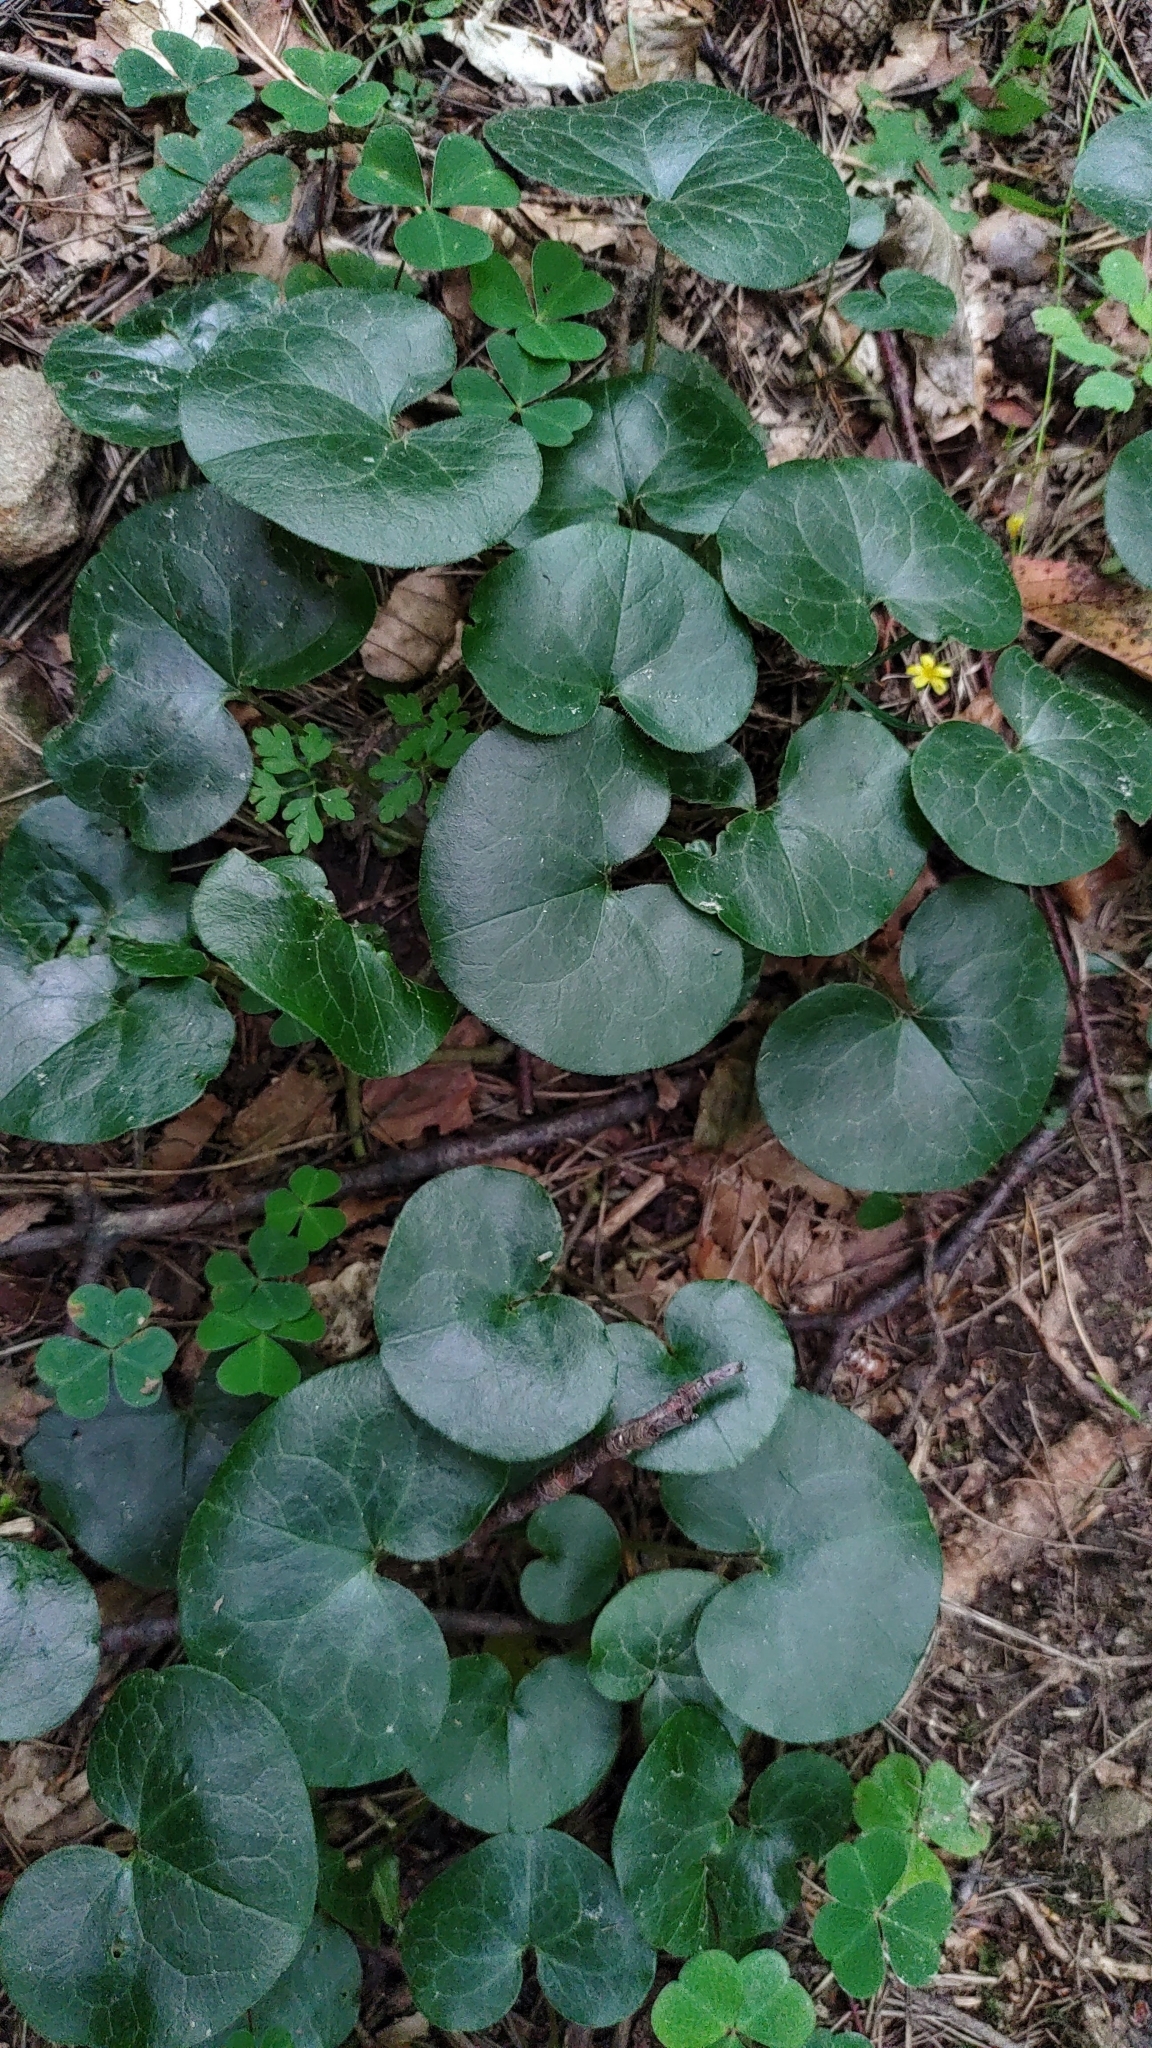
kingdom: Plantae
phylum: Tracheophyta
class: Magnoliopsida
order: Piperales
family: Aristolochiaceae
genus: Asarum
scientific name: Asarum europaeum
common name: Asarabacca
